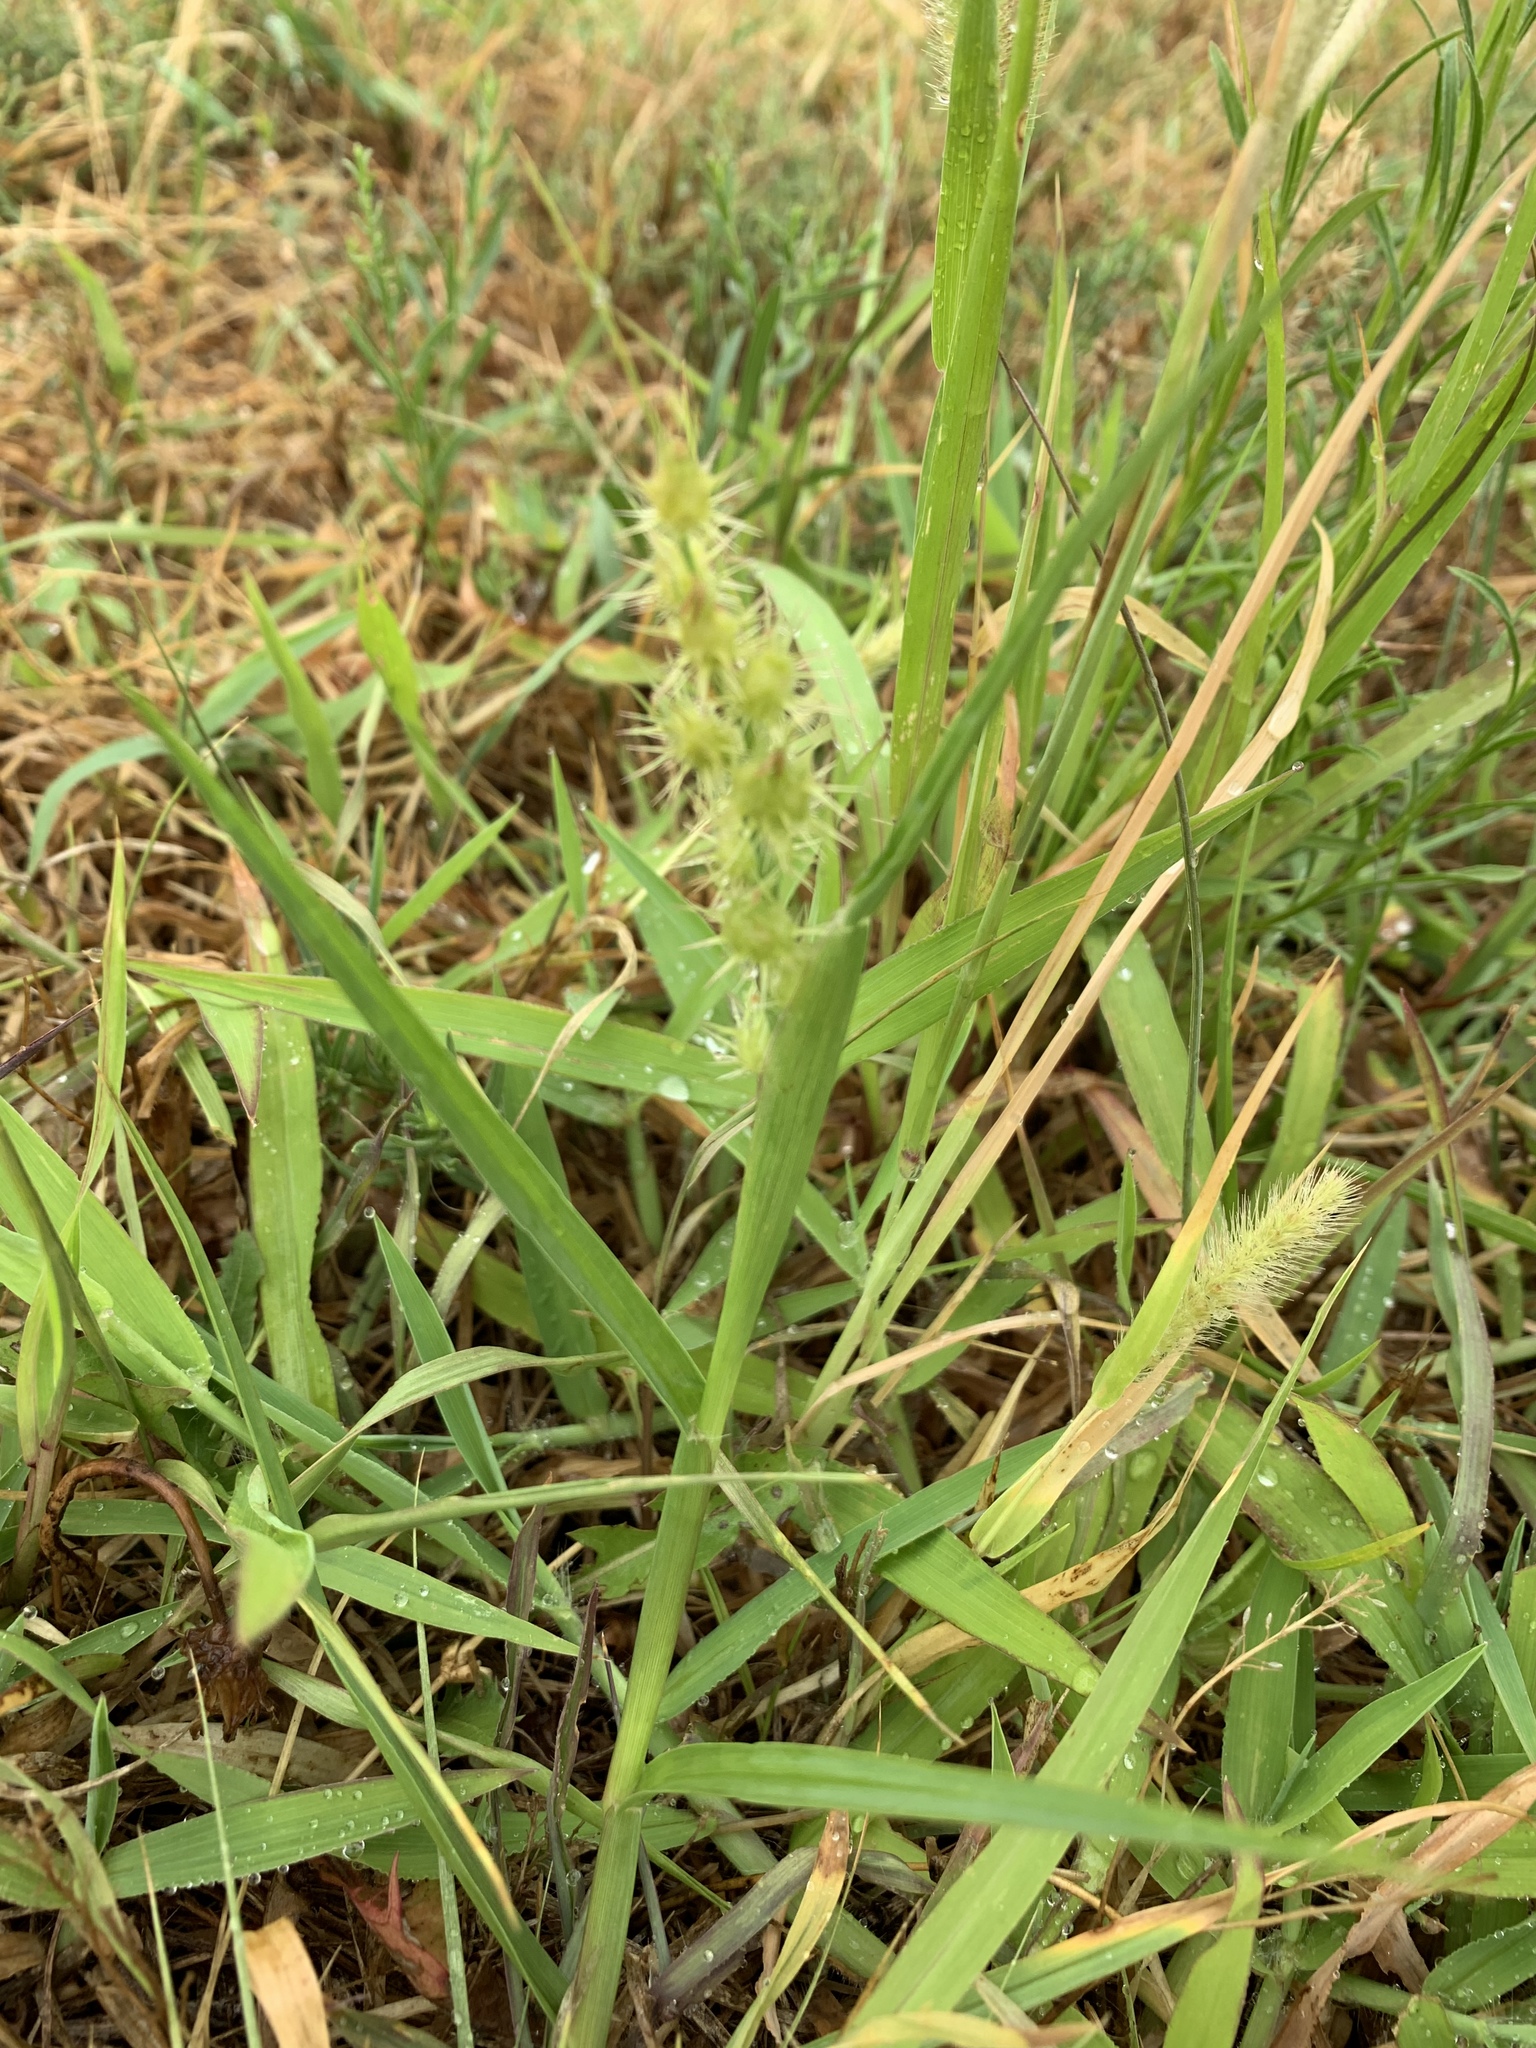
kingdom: Plantae
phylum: Tracheophyta
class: Liliopsida
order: Poales
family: Poaceae
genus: Cenchrus
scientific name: Cenchrus longispinus
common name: Mat sandbur
